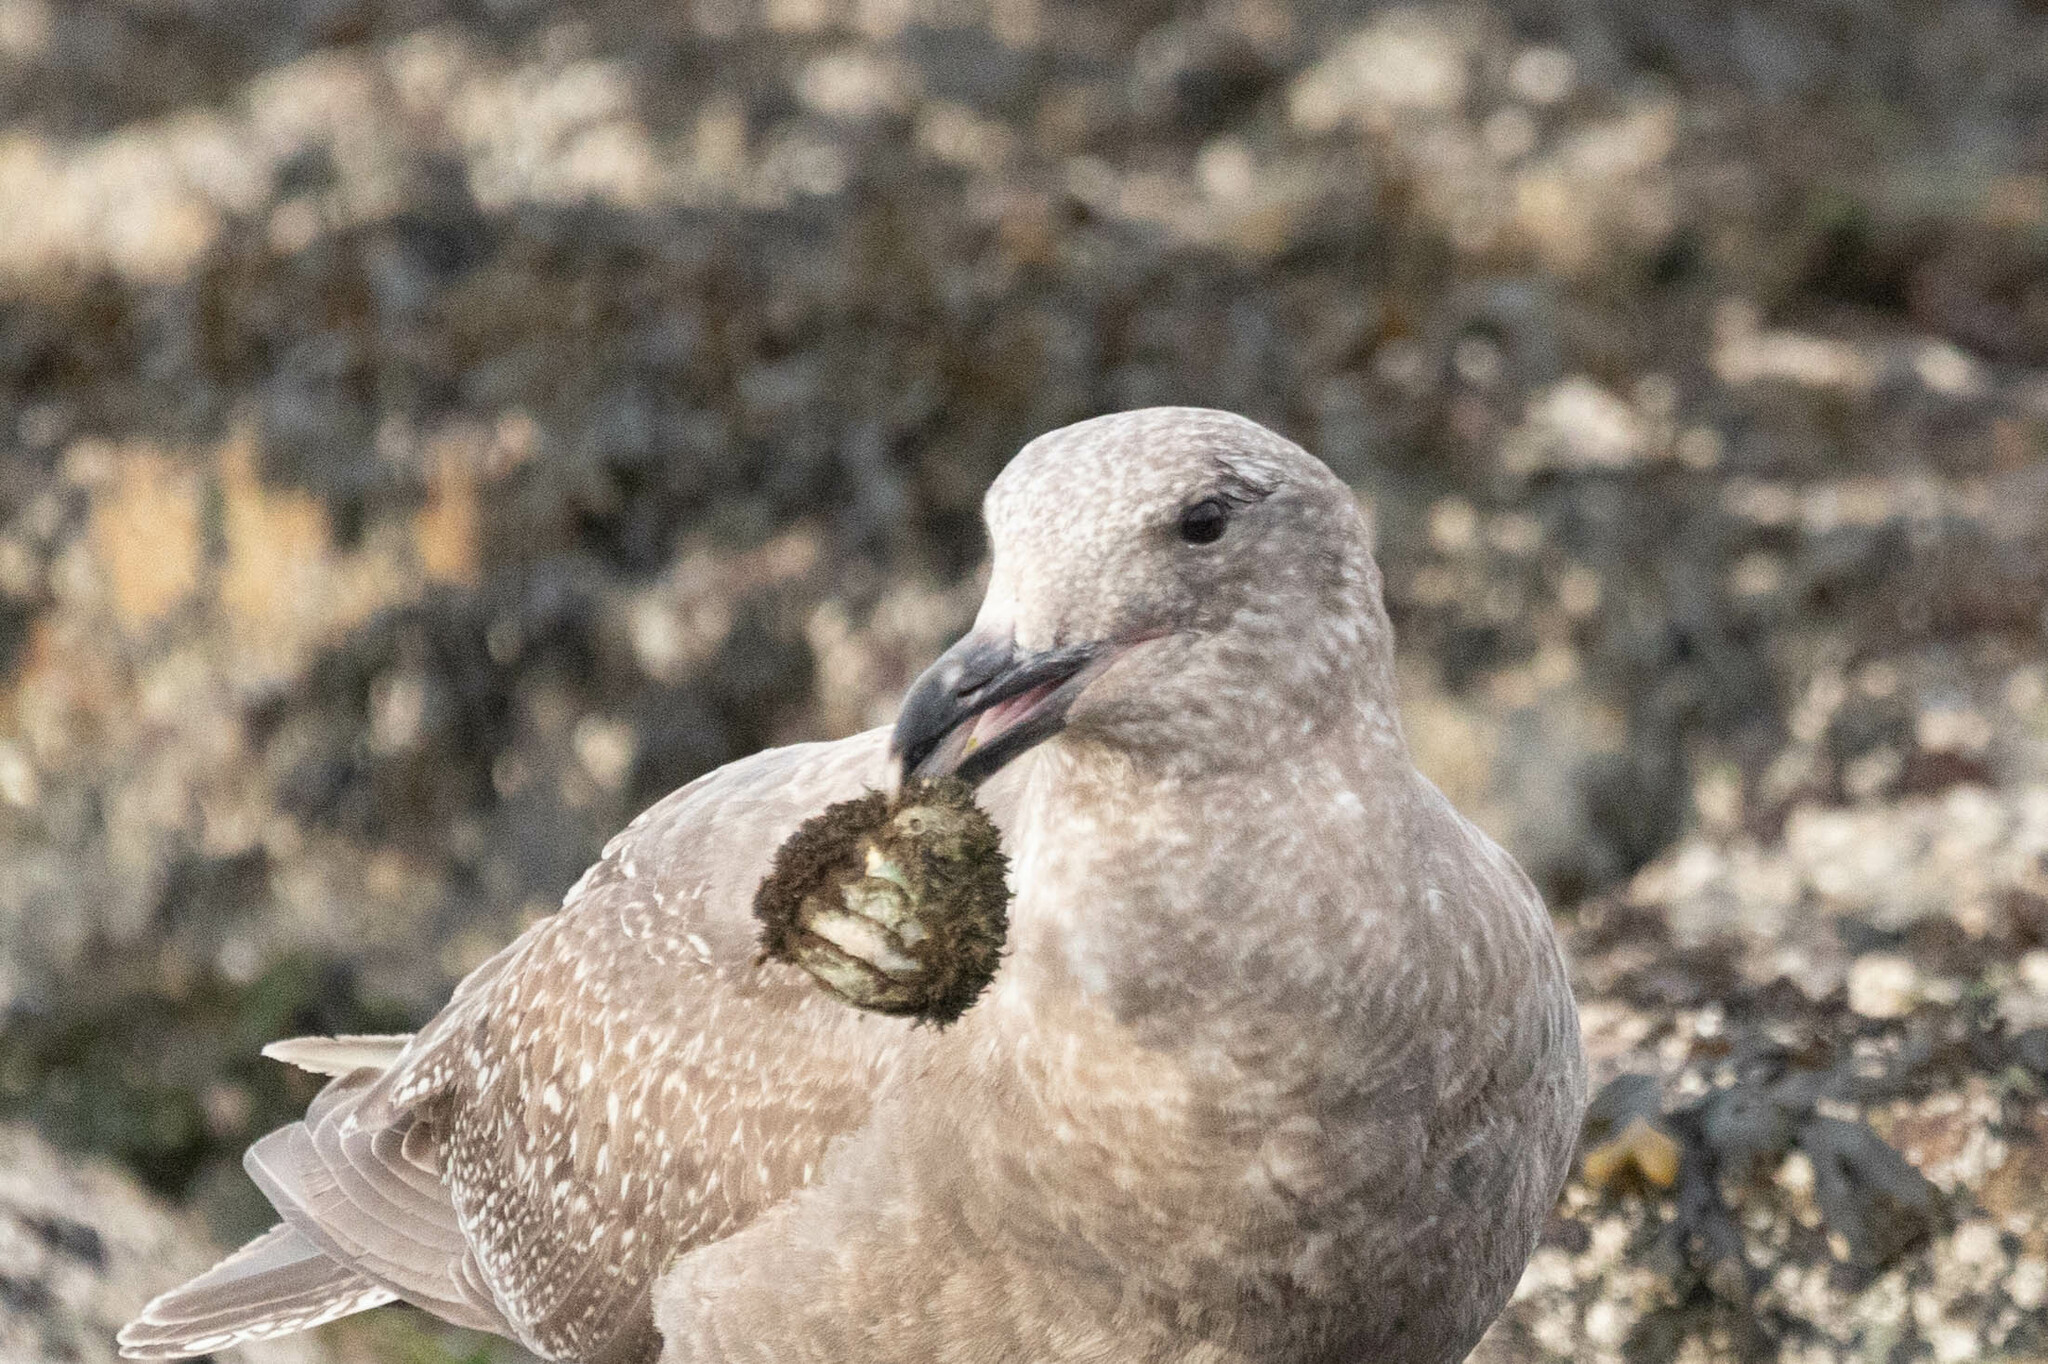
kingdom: Animalia
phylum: Mollusca
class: Polyplacophora
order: Chitonida
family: Mopaliidae
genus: Mopalia
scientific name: Mopalia muscosa
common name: Mossy chiton
